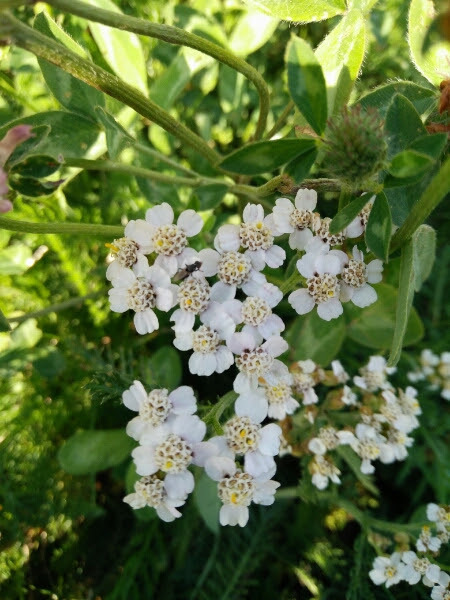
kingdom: Plantae
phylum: Tracheophyta
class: Magnoliopsida
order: Asterales
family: Asteraceae
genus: Achillea
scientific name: Achillea millefolium
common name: Yarrow
